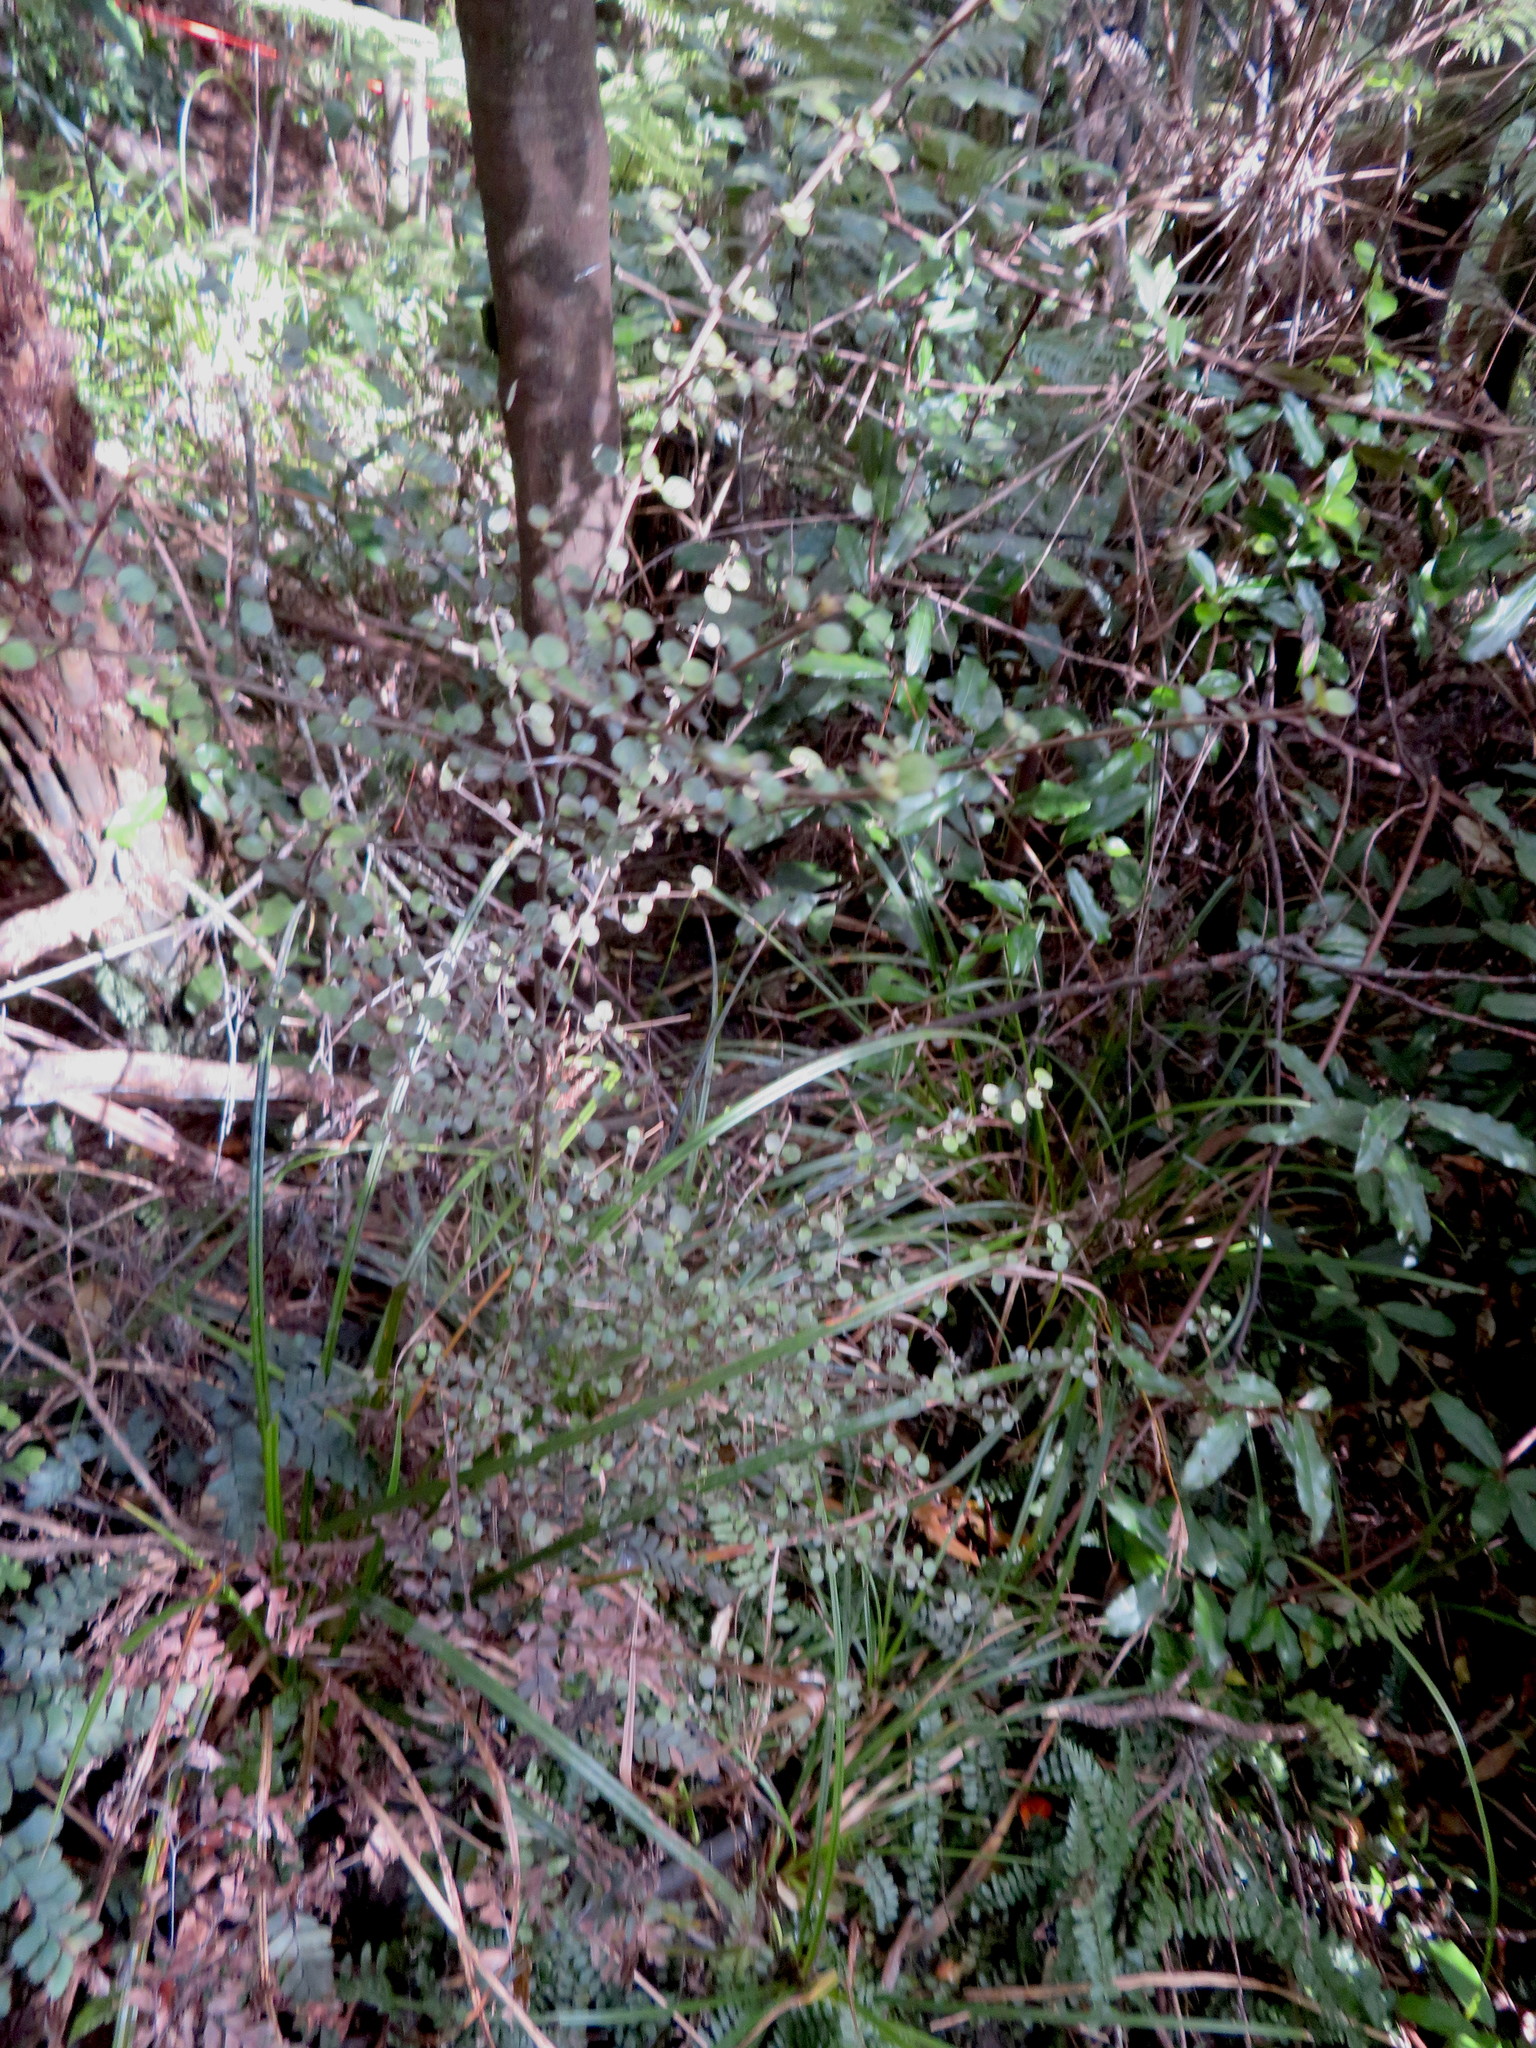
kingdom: Plantae
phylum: Tracheophyta
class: Magnoliopsida
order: Rosales
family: Elaeagnaceae
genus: Elaeagnus
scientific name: Elaeagnus reflexa
